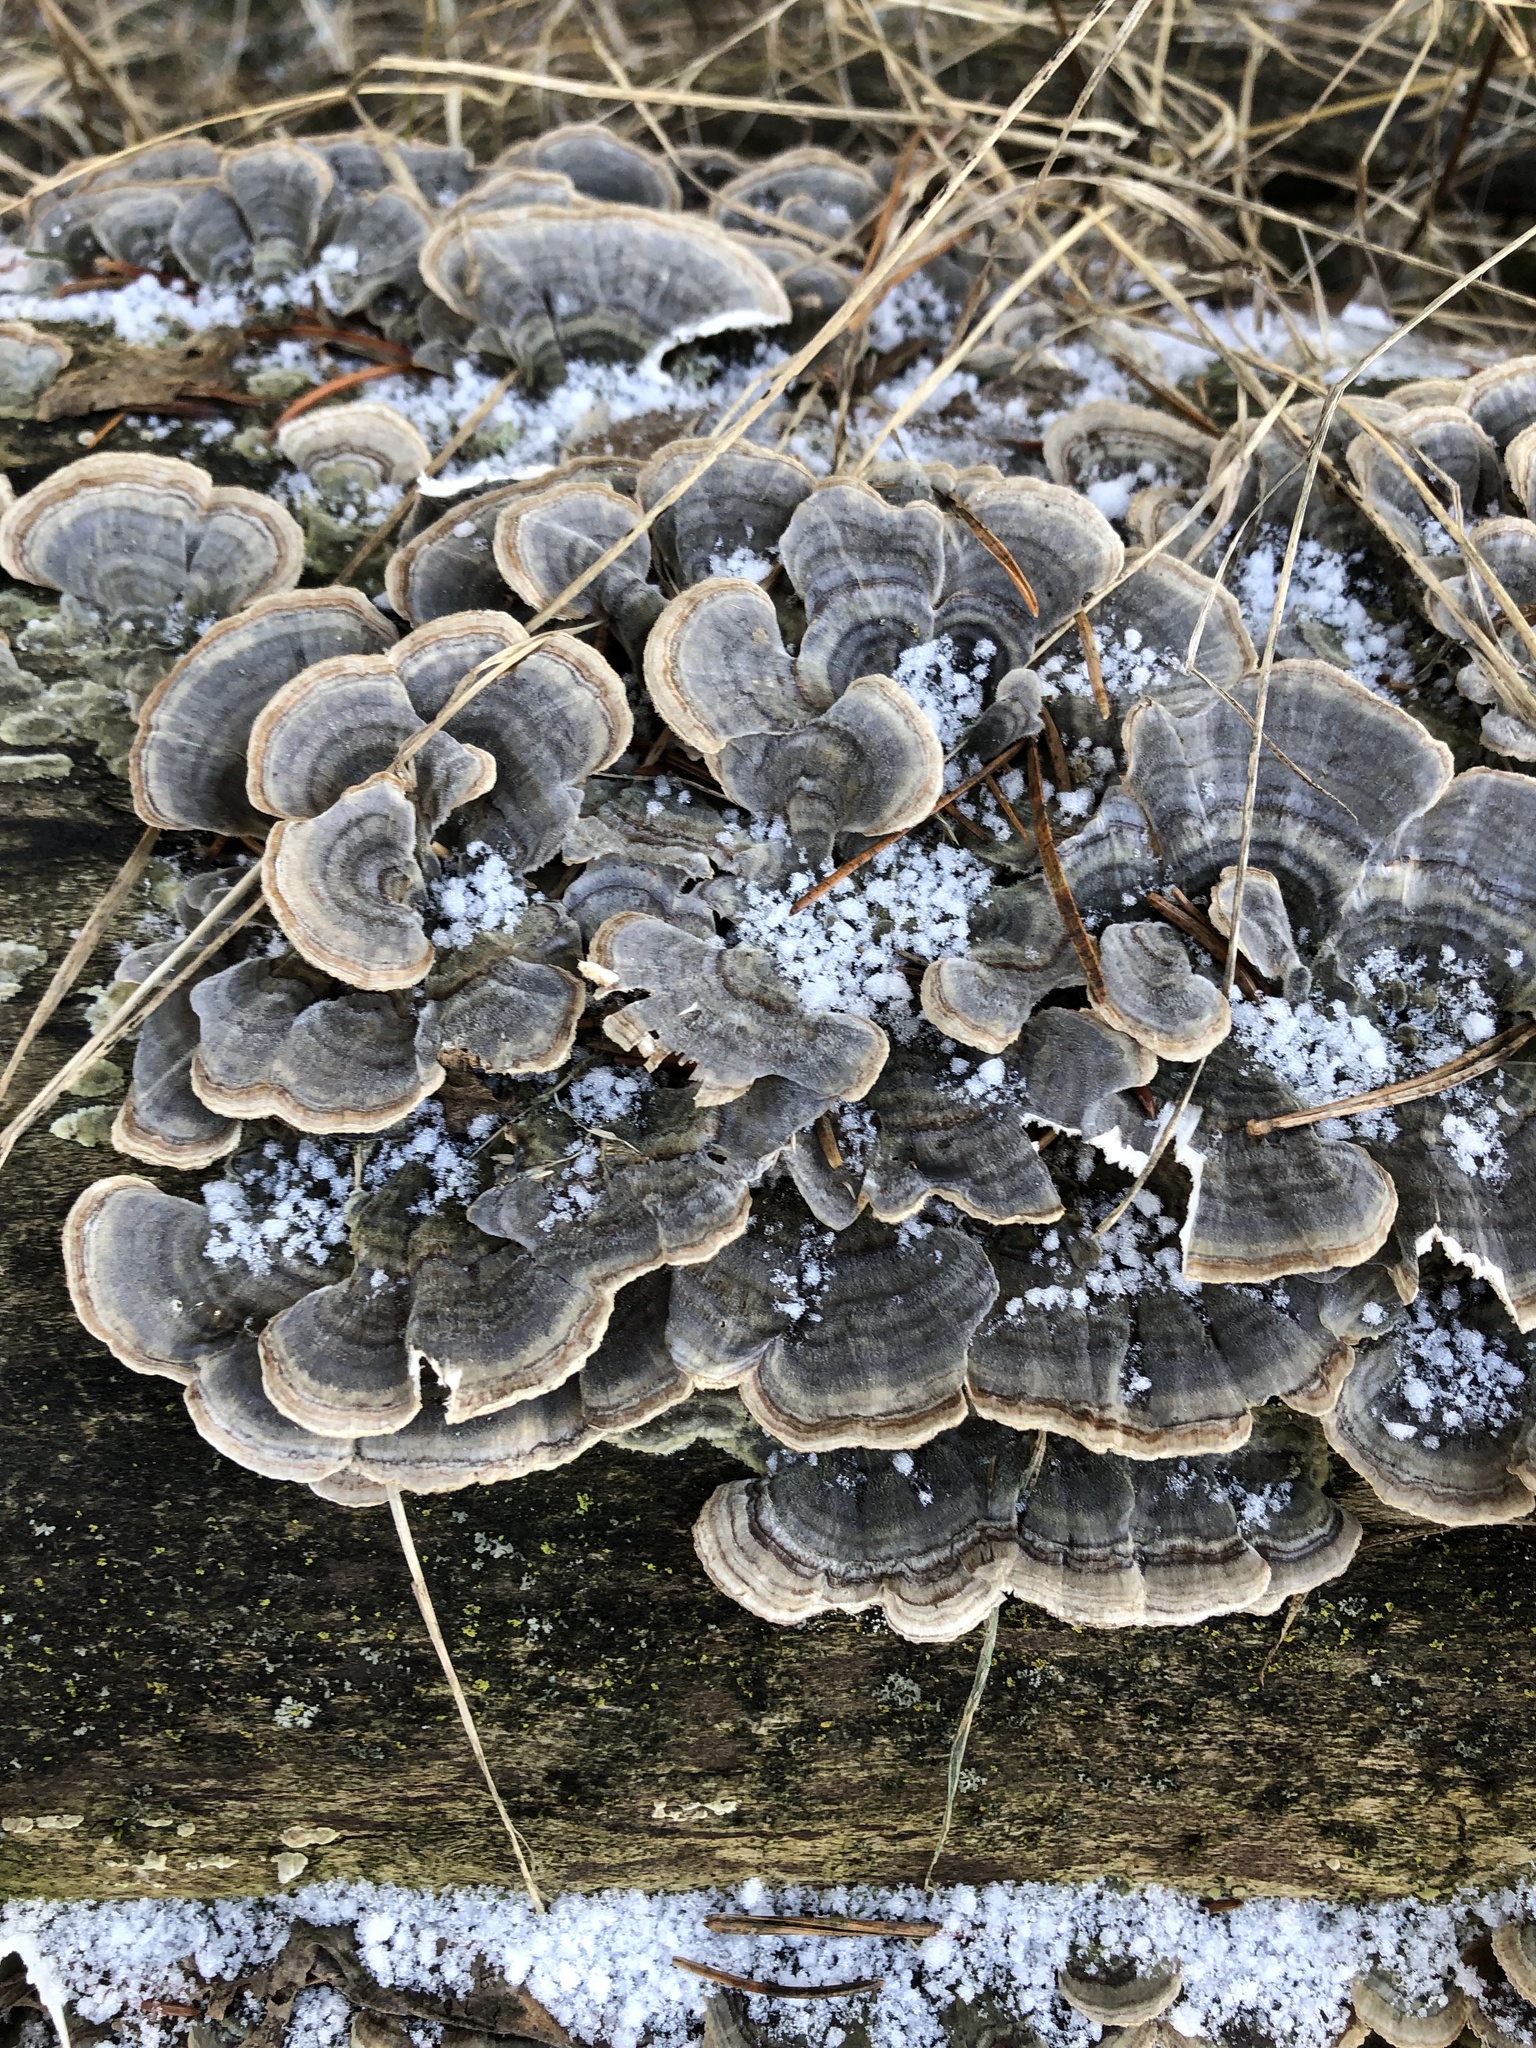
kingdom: Fungi
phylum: Basidiomycota
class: Agaricomycetes
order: Polyporales
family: Polyporaceae
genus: Trametes
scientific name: Trametes versicolor
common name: Turkeytail
